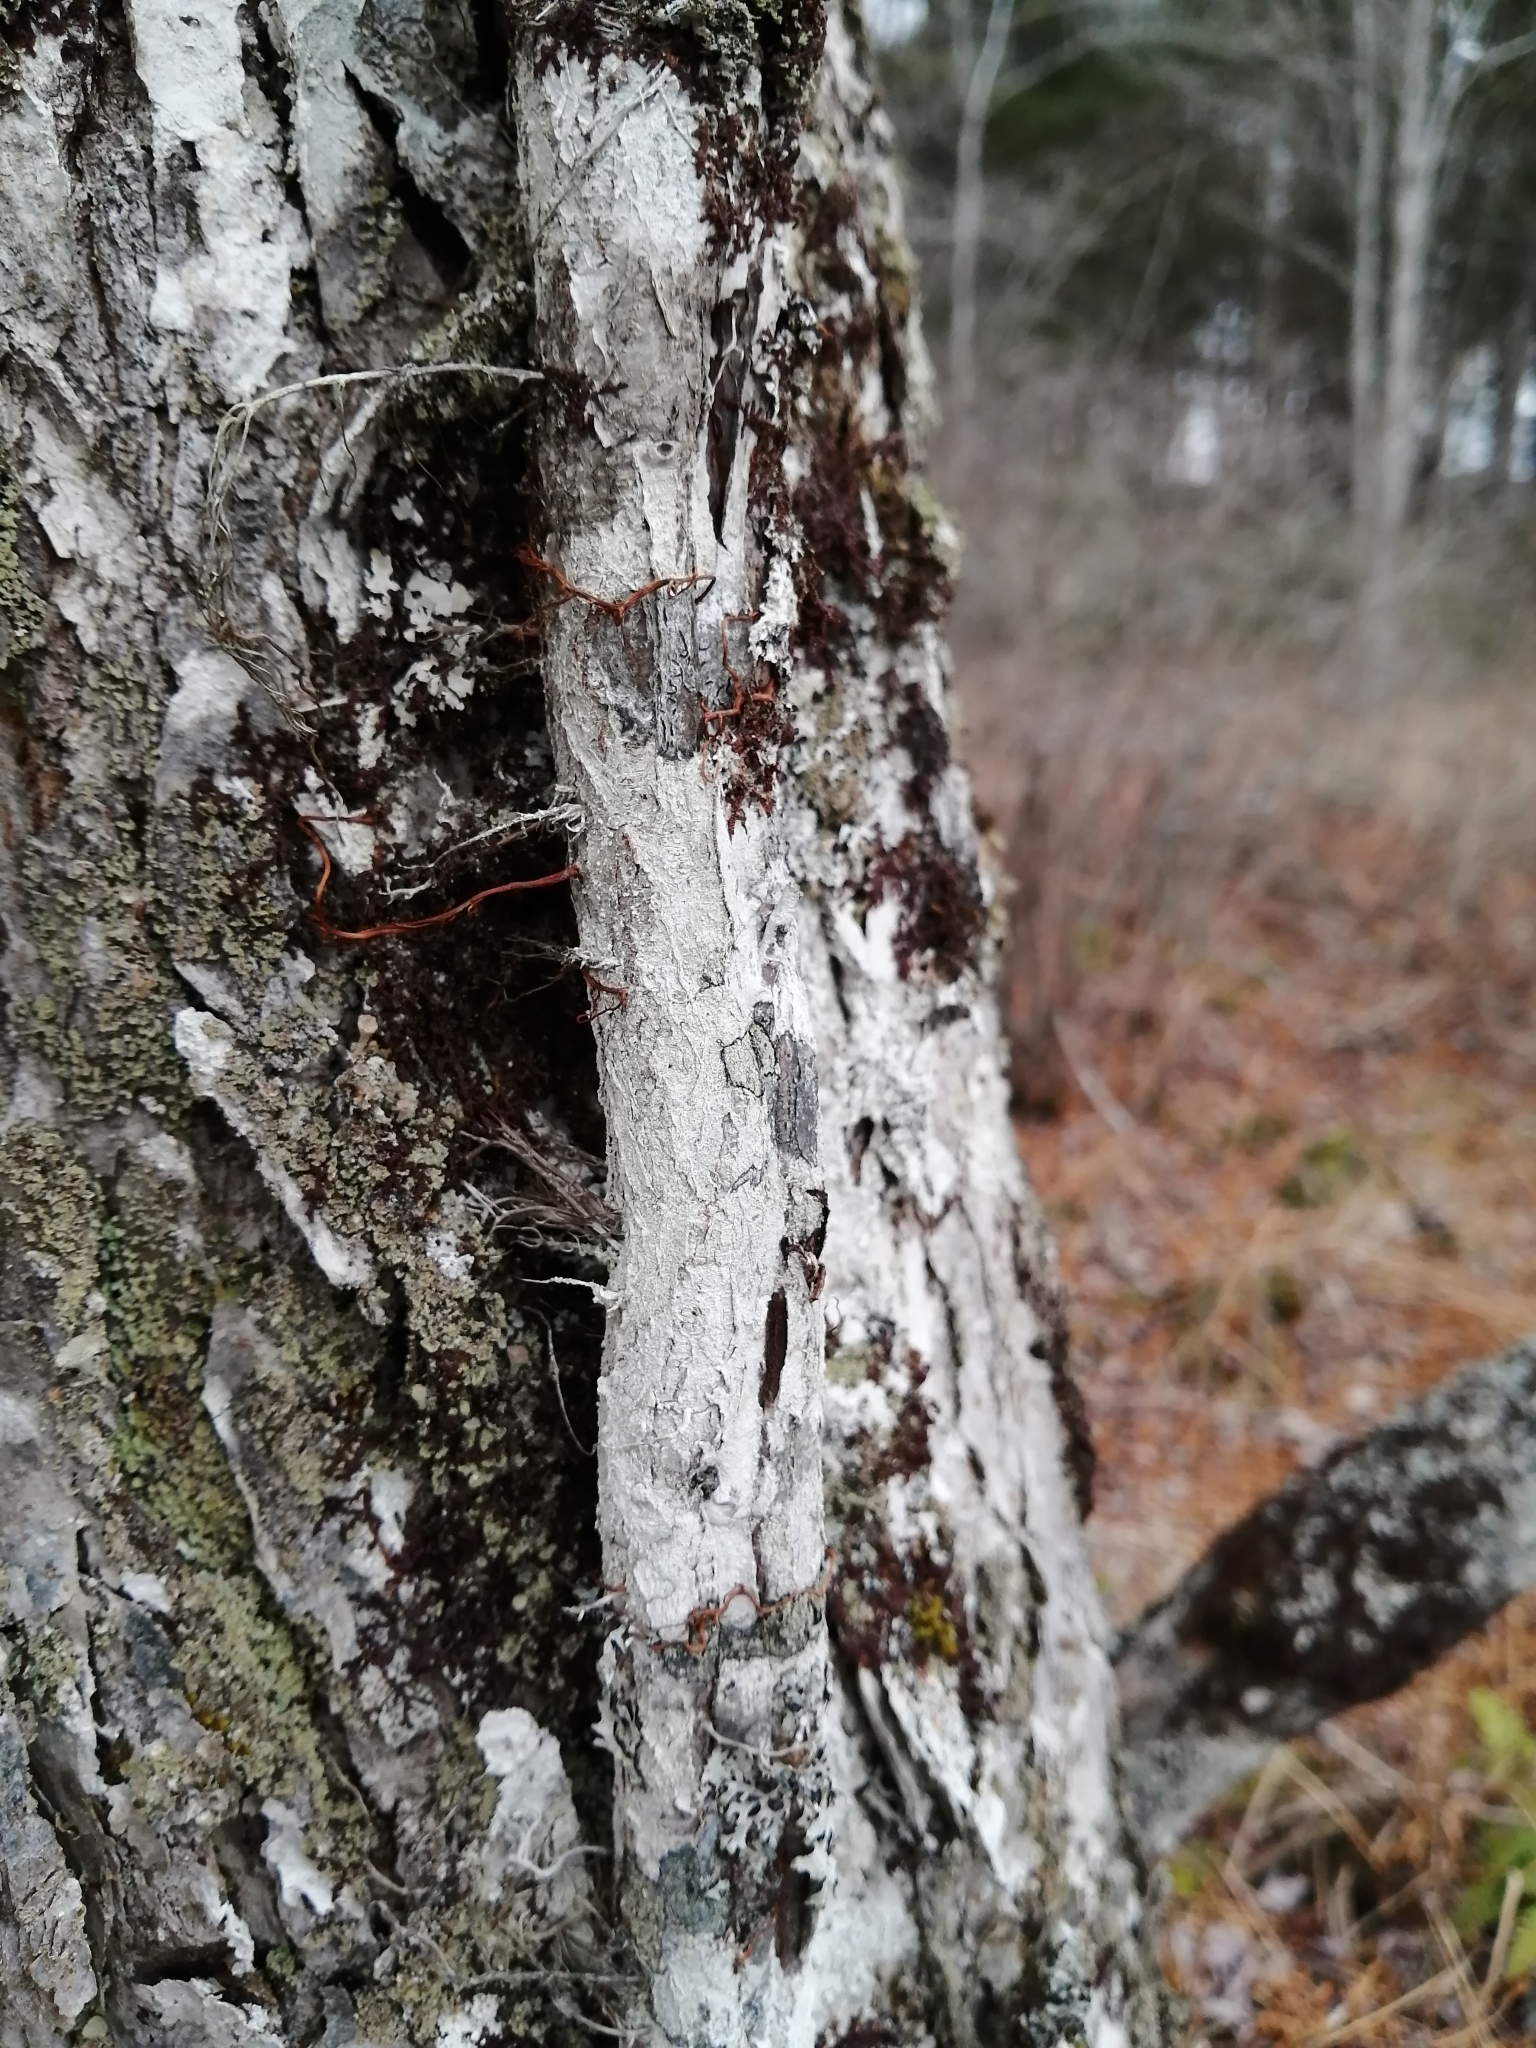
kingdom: Plantae
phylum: Tracheophyta
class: Magnoliopsida
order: Sapindales
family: Anacardiaceae
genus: Toxicodendron
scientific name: Toxicodendron radicans
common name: Poison ivy
